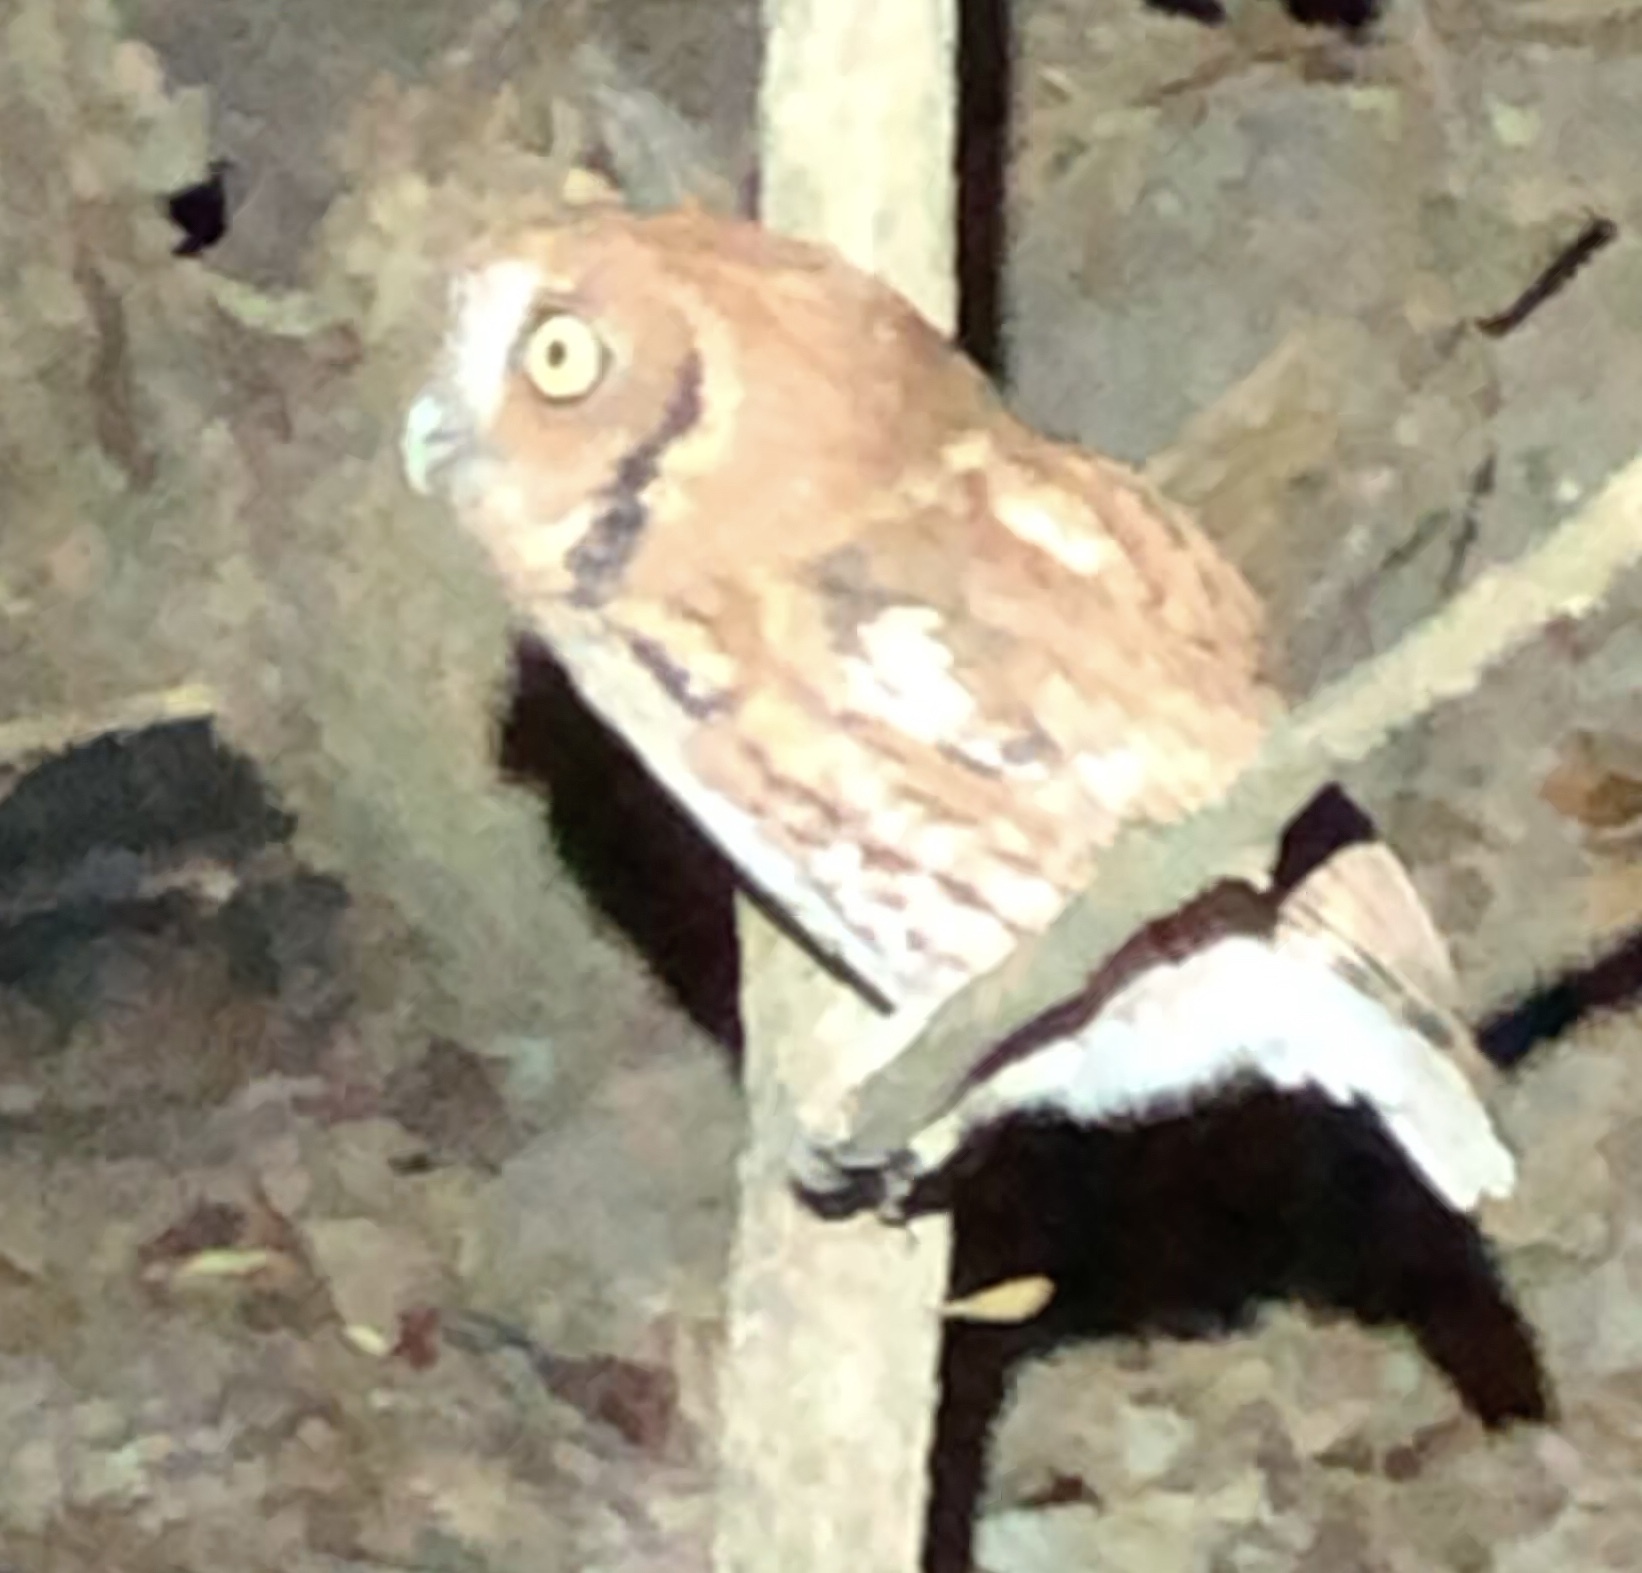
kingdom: Animalia
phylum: Chordata
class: Aves
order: Strigiformes
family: Strigidae
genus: Megascops
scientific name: Megascops asio
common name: Eastern screech-owl
